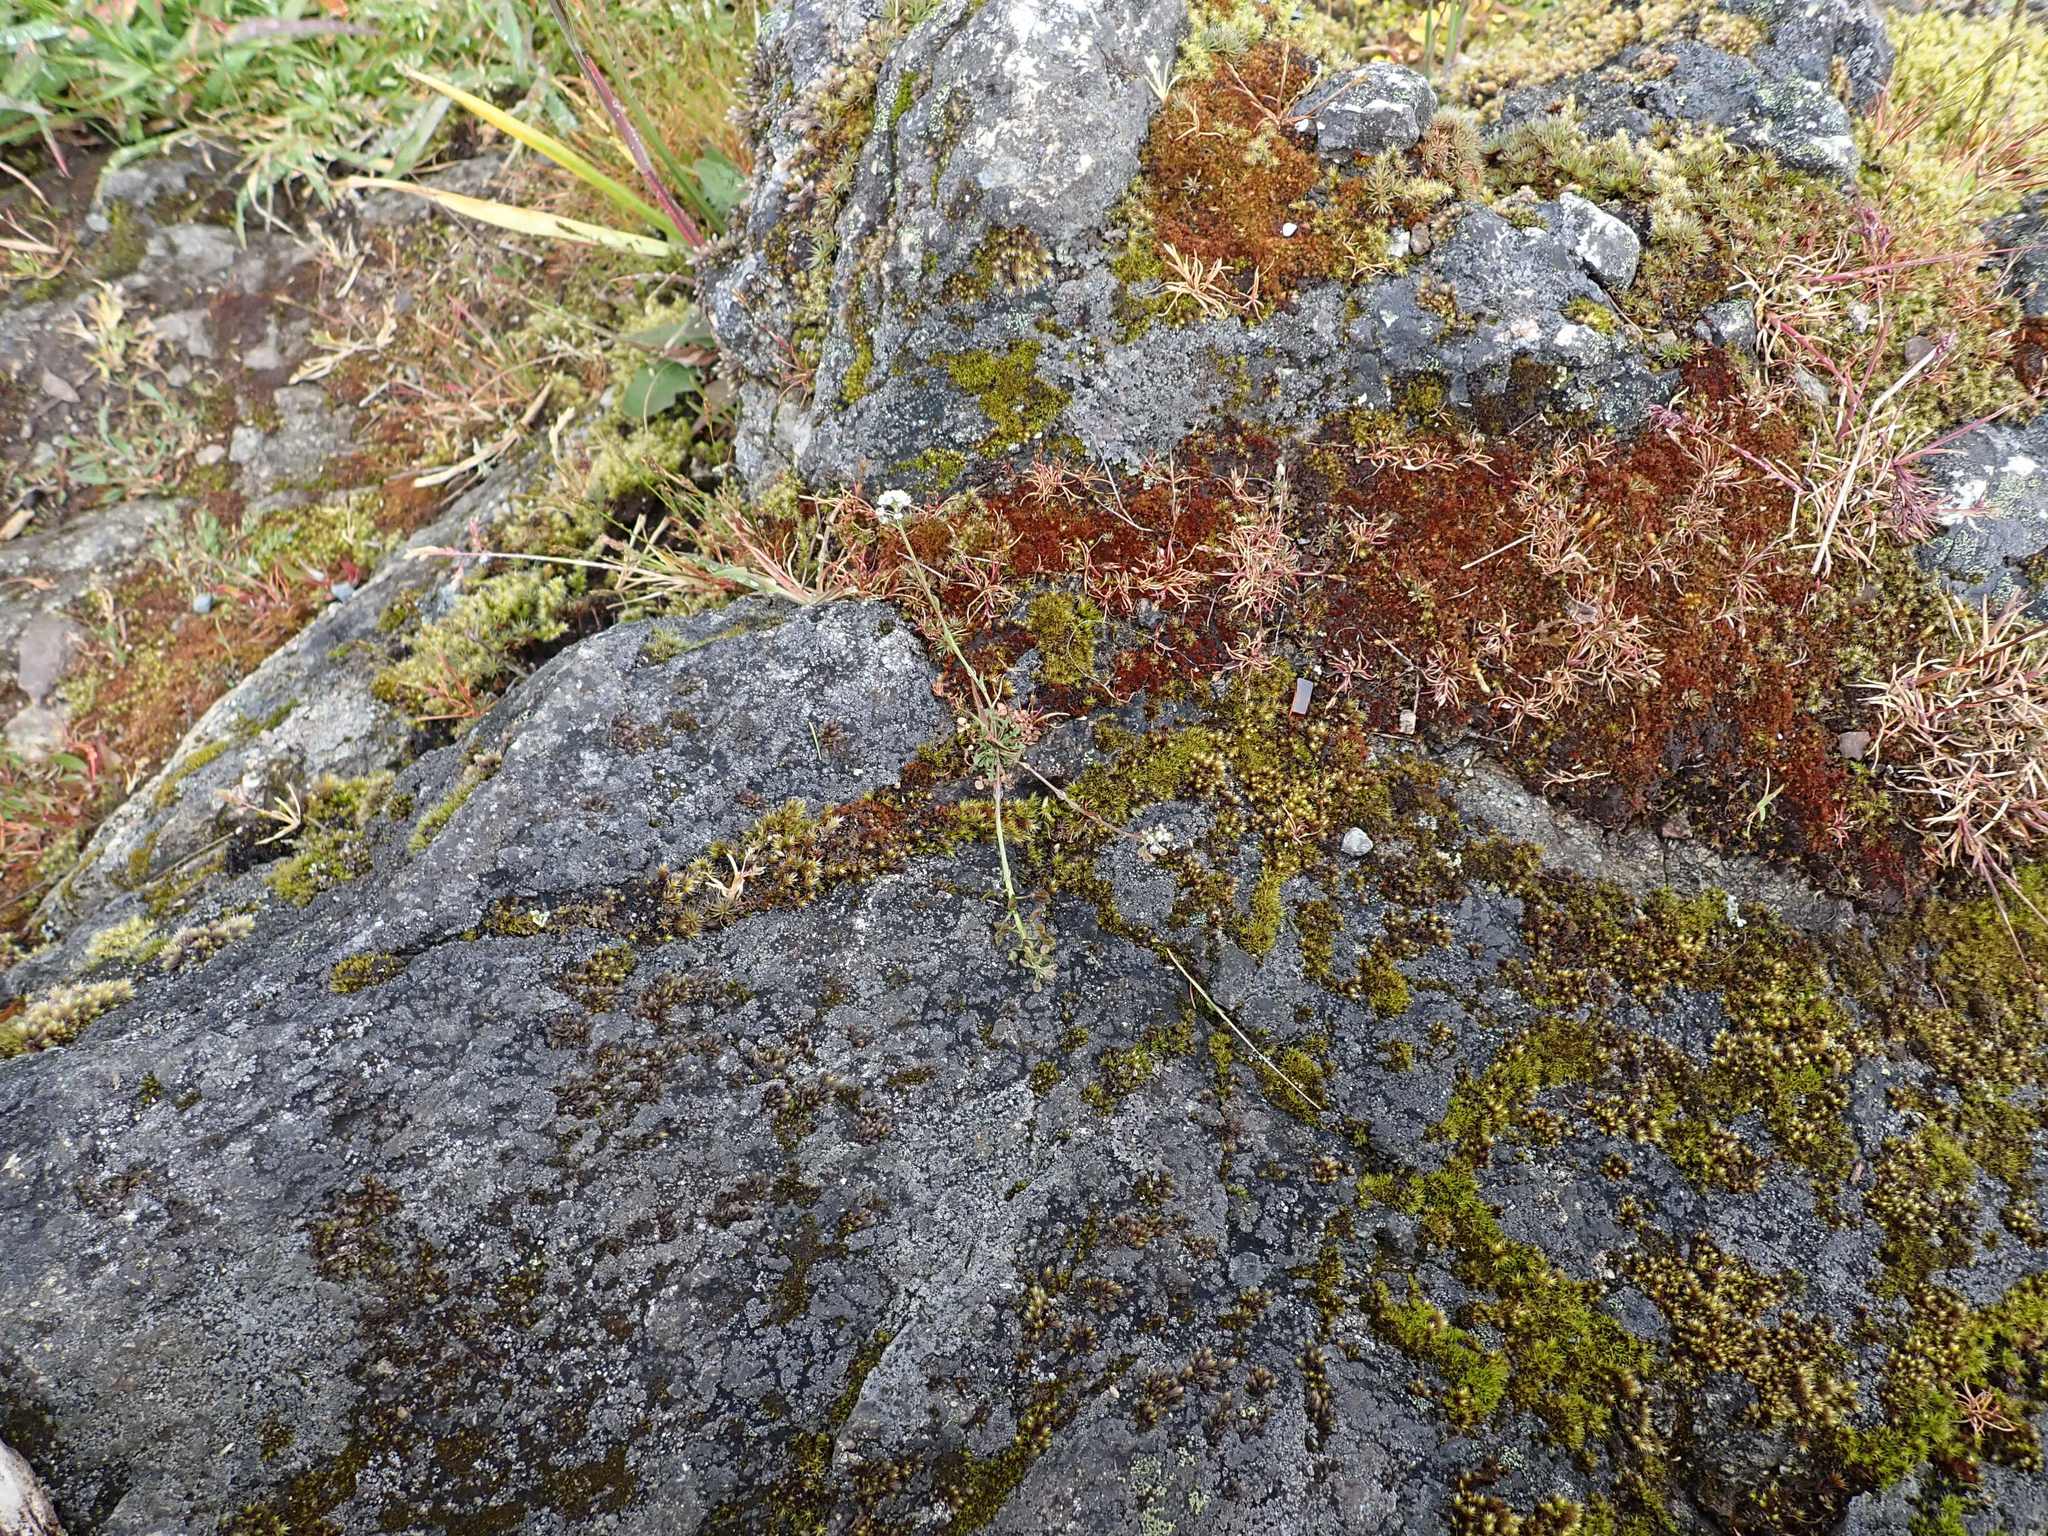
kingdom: Plantae
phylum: Tracheophyta
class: Magnoliopsida
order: Brassicales
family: Brassicaceae
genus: Teesdalia
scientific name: Teesdalia nudicaulis
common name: Shepherd's cress
